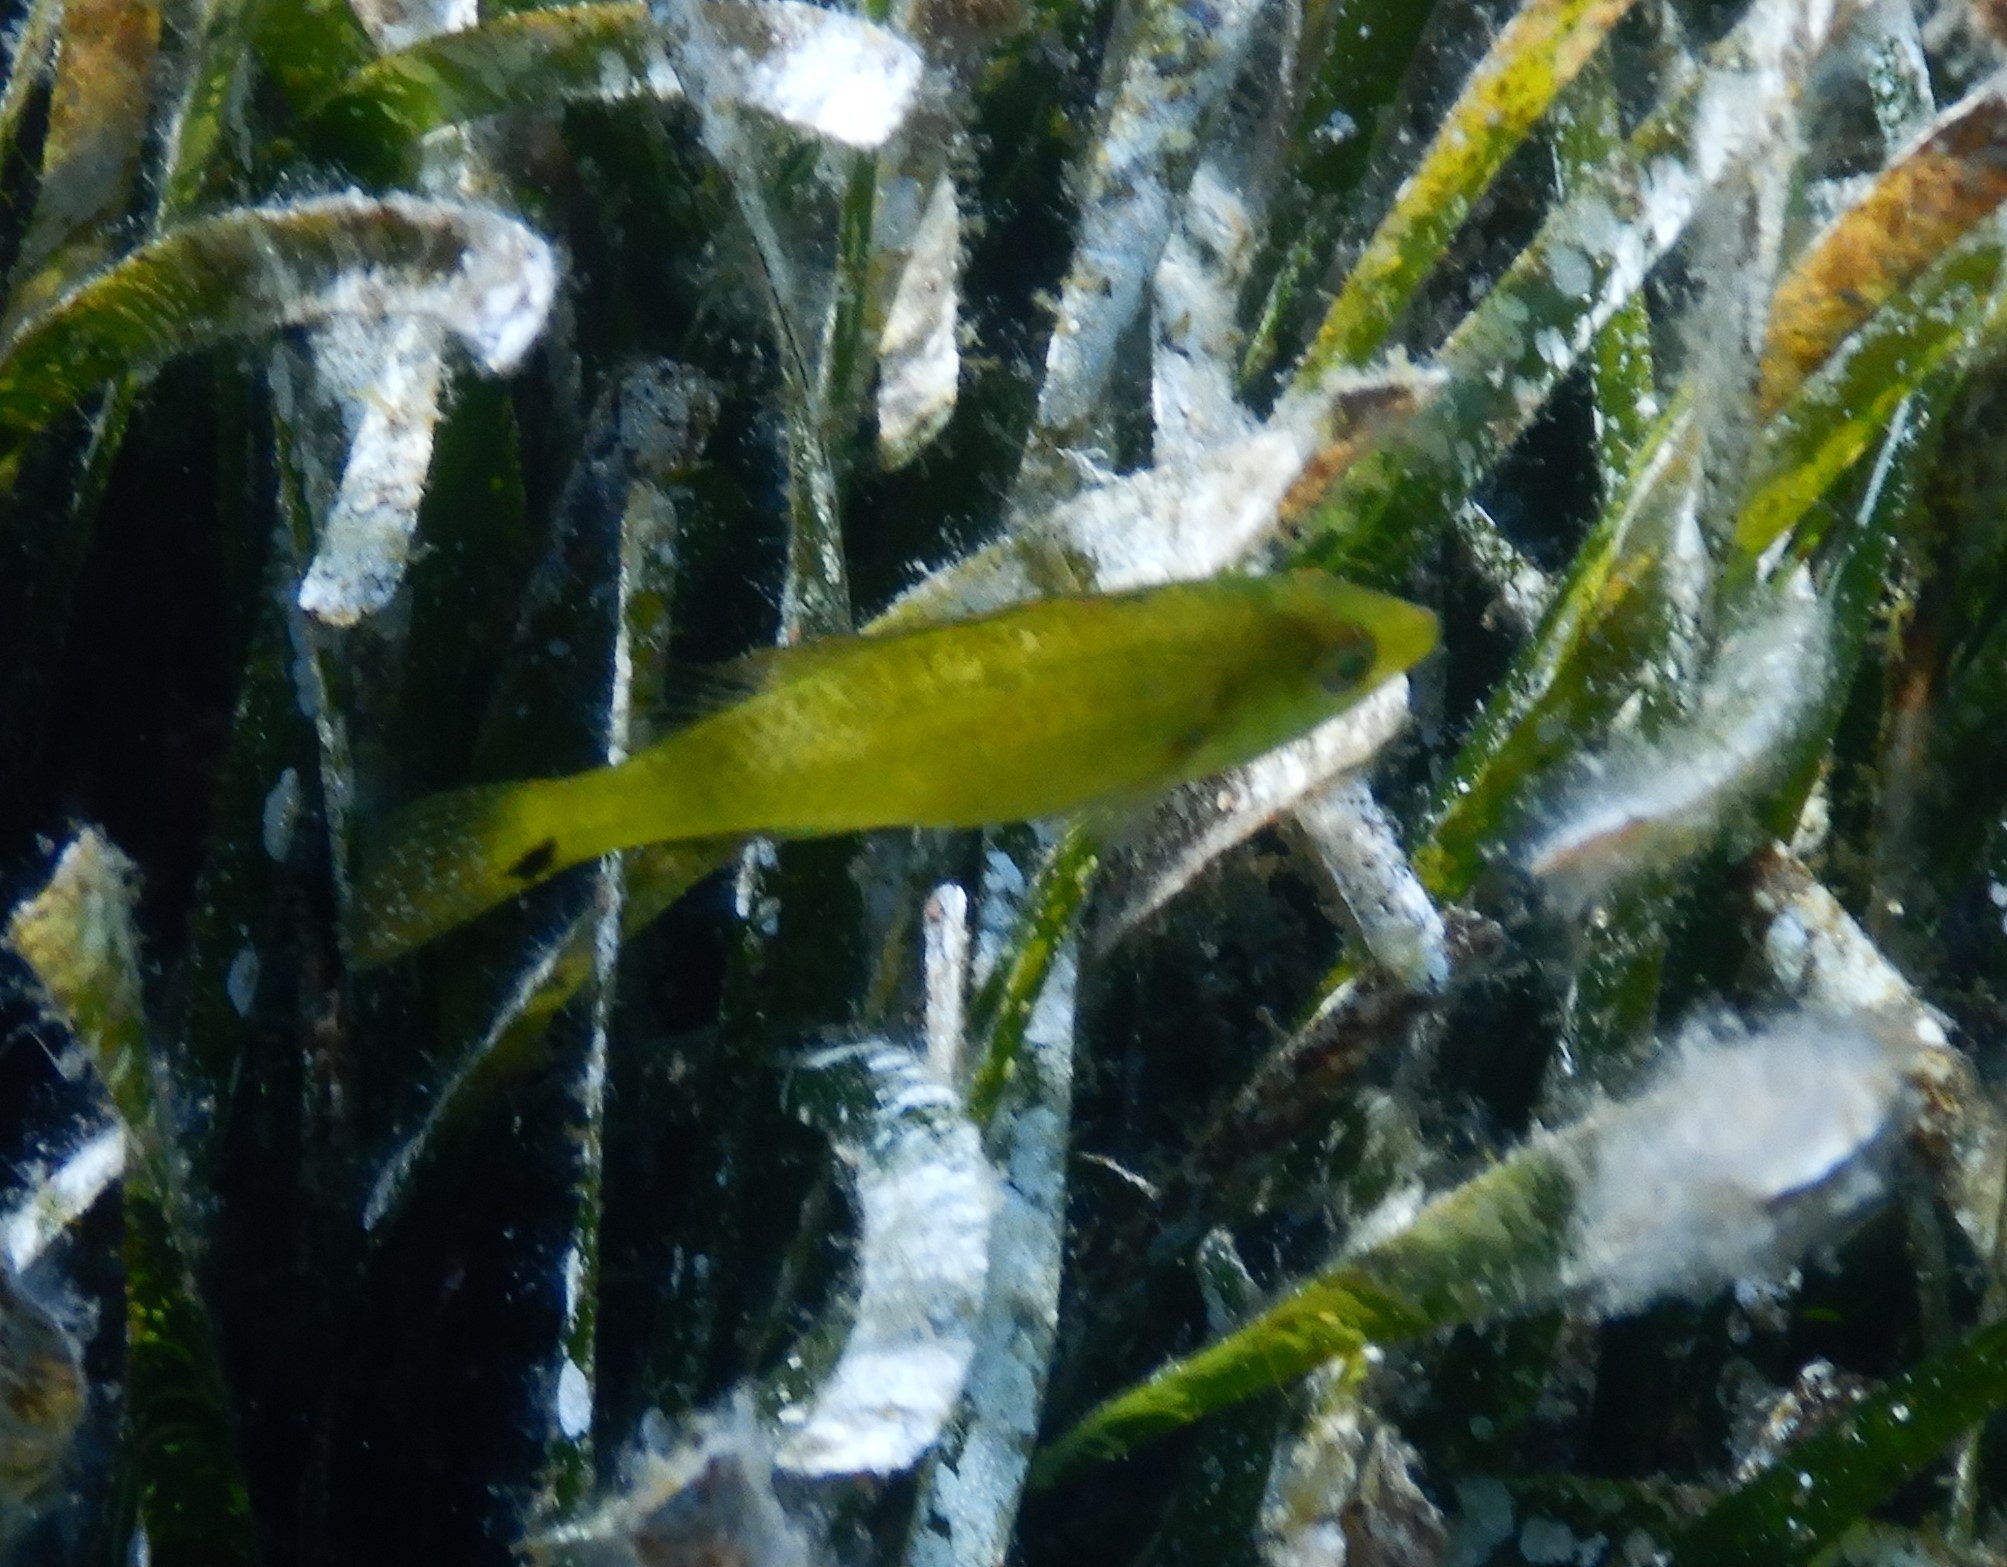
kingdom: Animalia
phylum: Chordata
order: Perciformes
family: Labridae
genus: Symphodus
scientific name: Symphodus cinereus
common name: Grey wrasse
